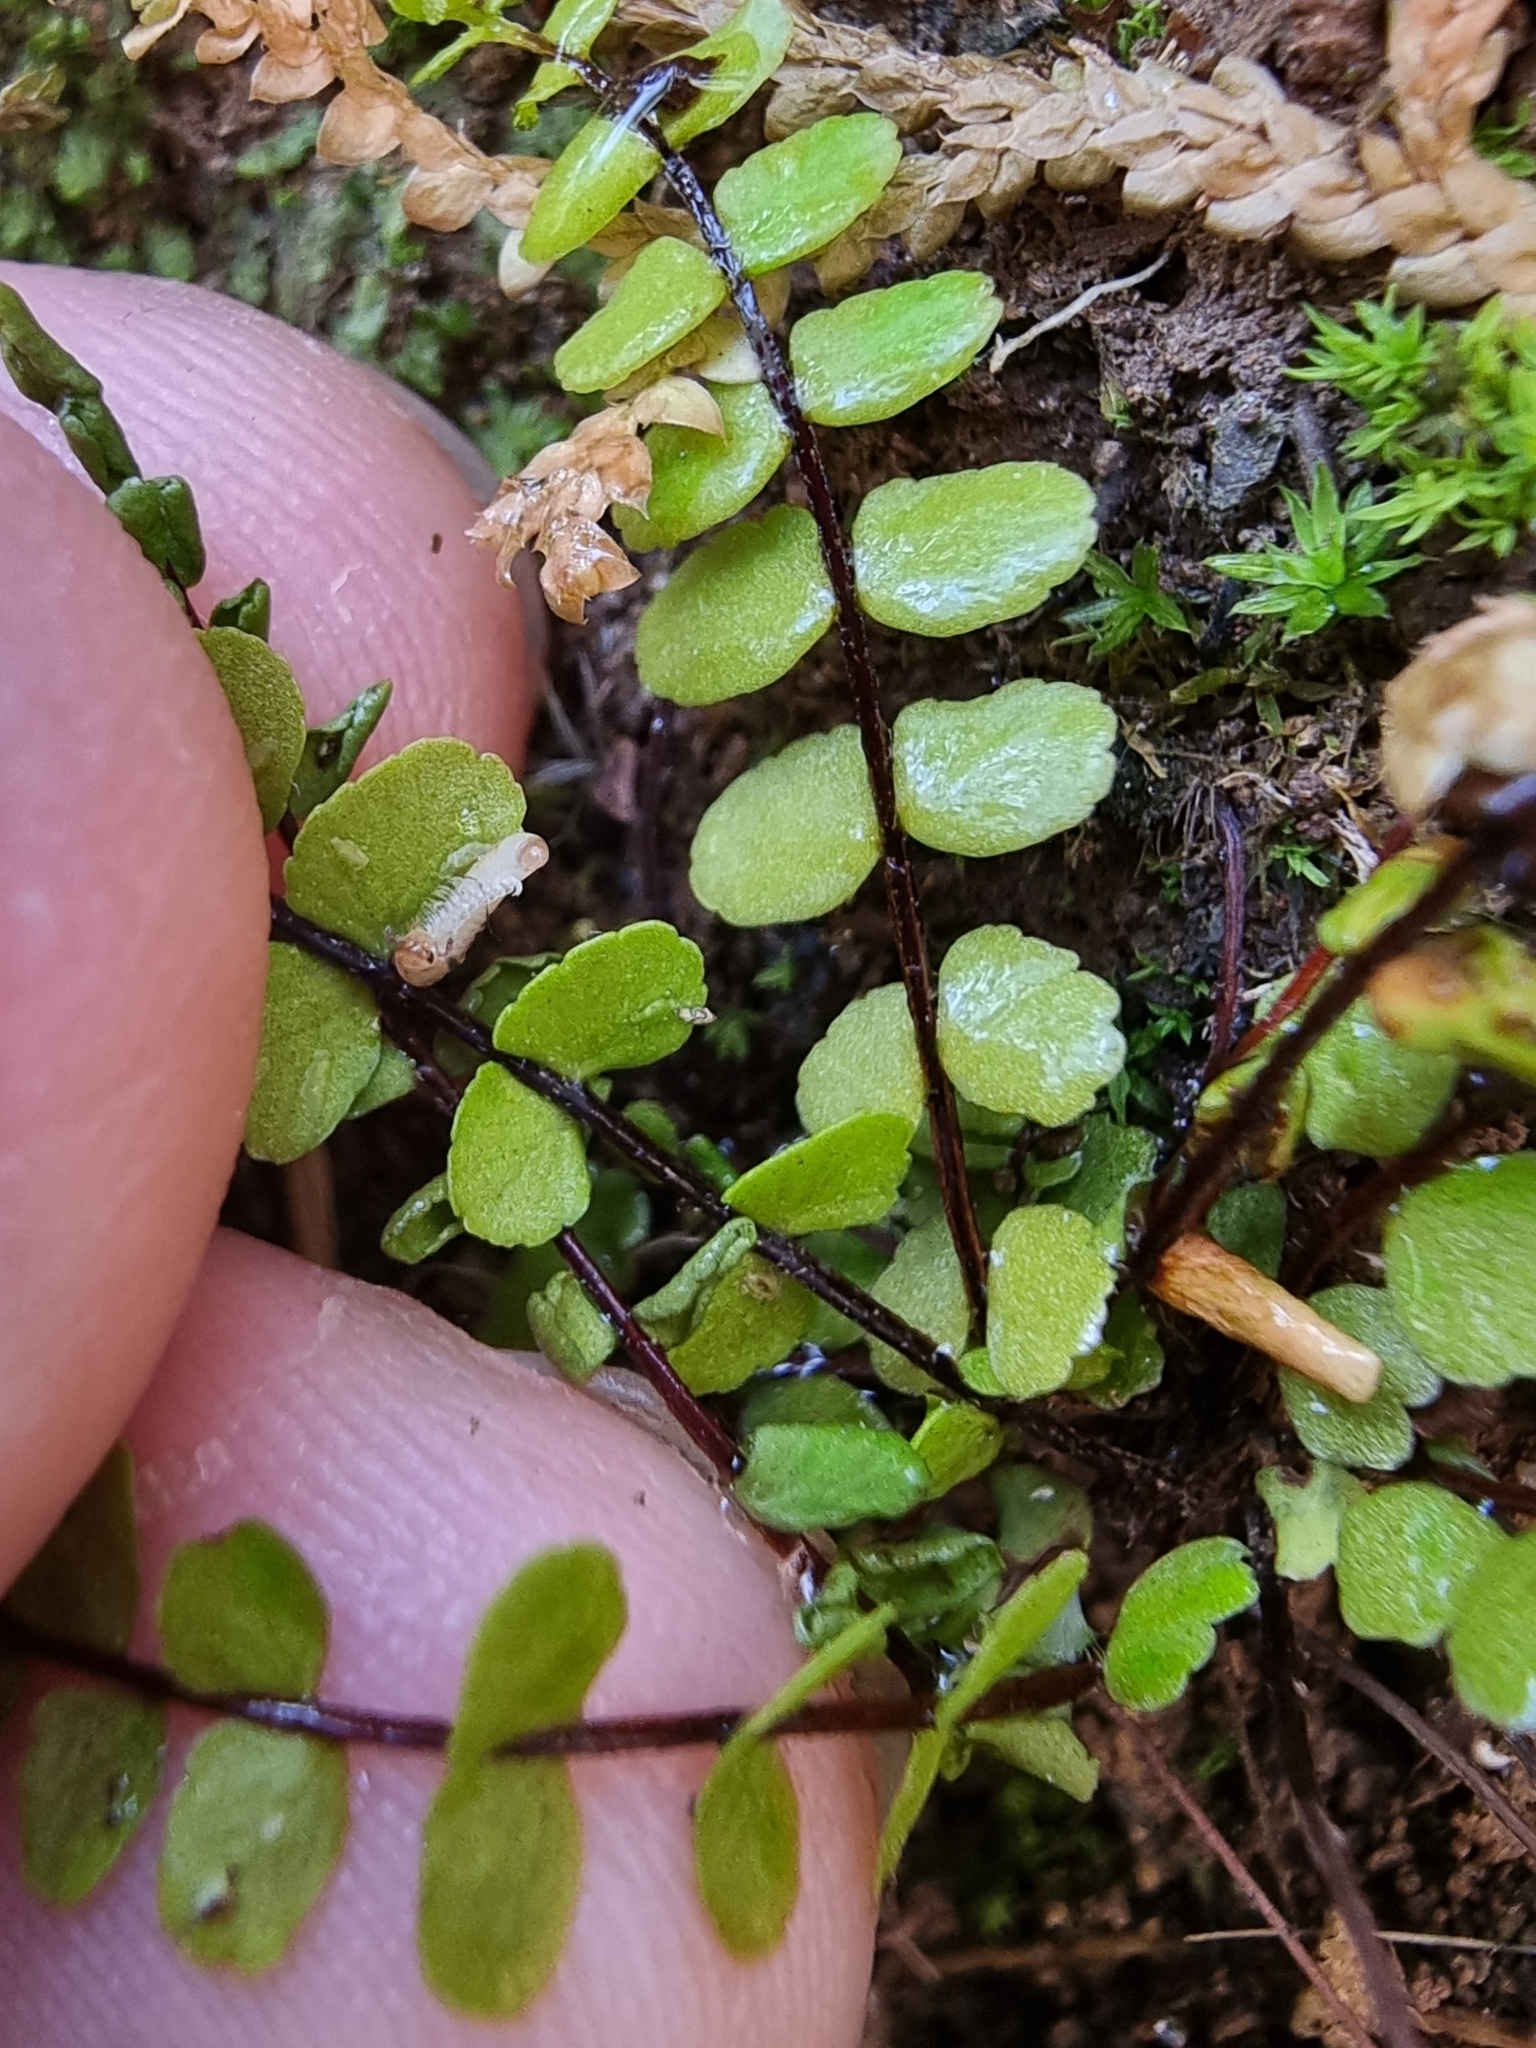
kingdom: Plantae
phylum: Tracheophyta
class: Polypodiopsida
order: Polypodiales
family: Aspleniaceae
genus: Asplenium
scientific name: Asplenium trichomanes
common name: Maidenhair spleenwort
